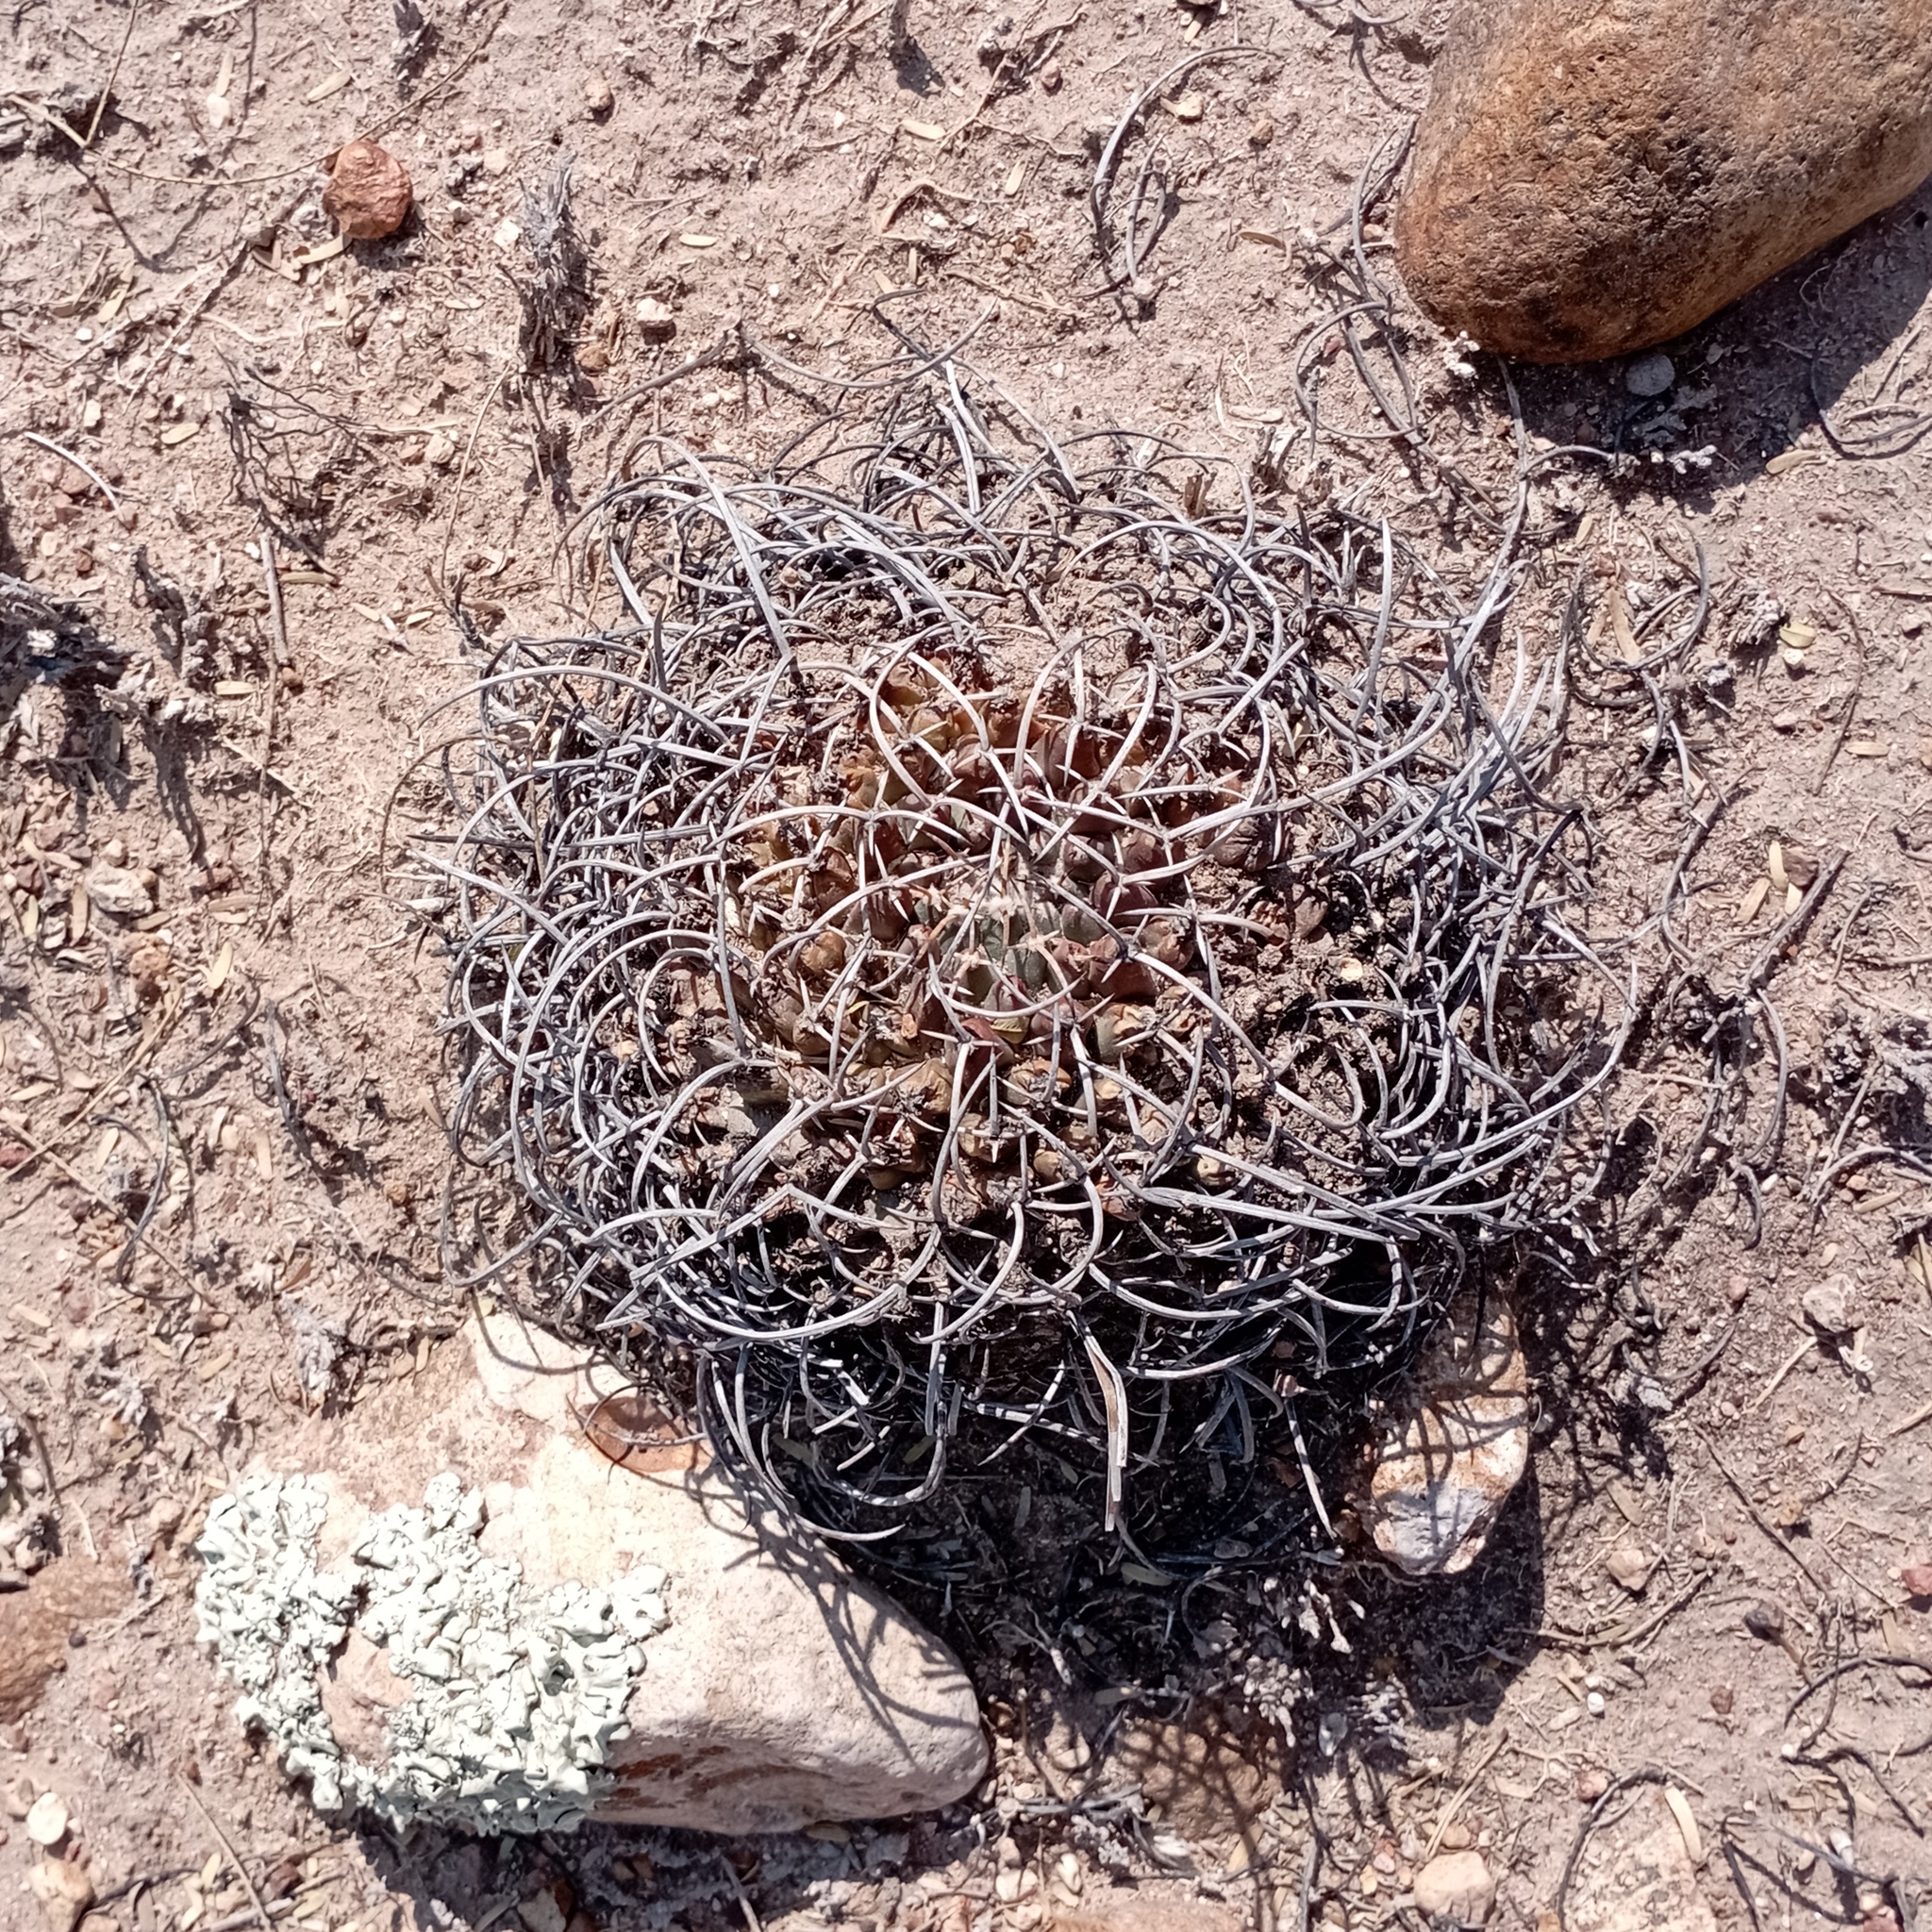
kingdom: Plantae
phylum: Tracheophyta
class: Magnoliopsida
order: Caryophyllales
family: Cactaceae
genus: Mammillaria
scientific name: Mammillaria magnimamma
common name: Mexican pincushion
